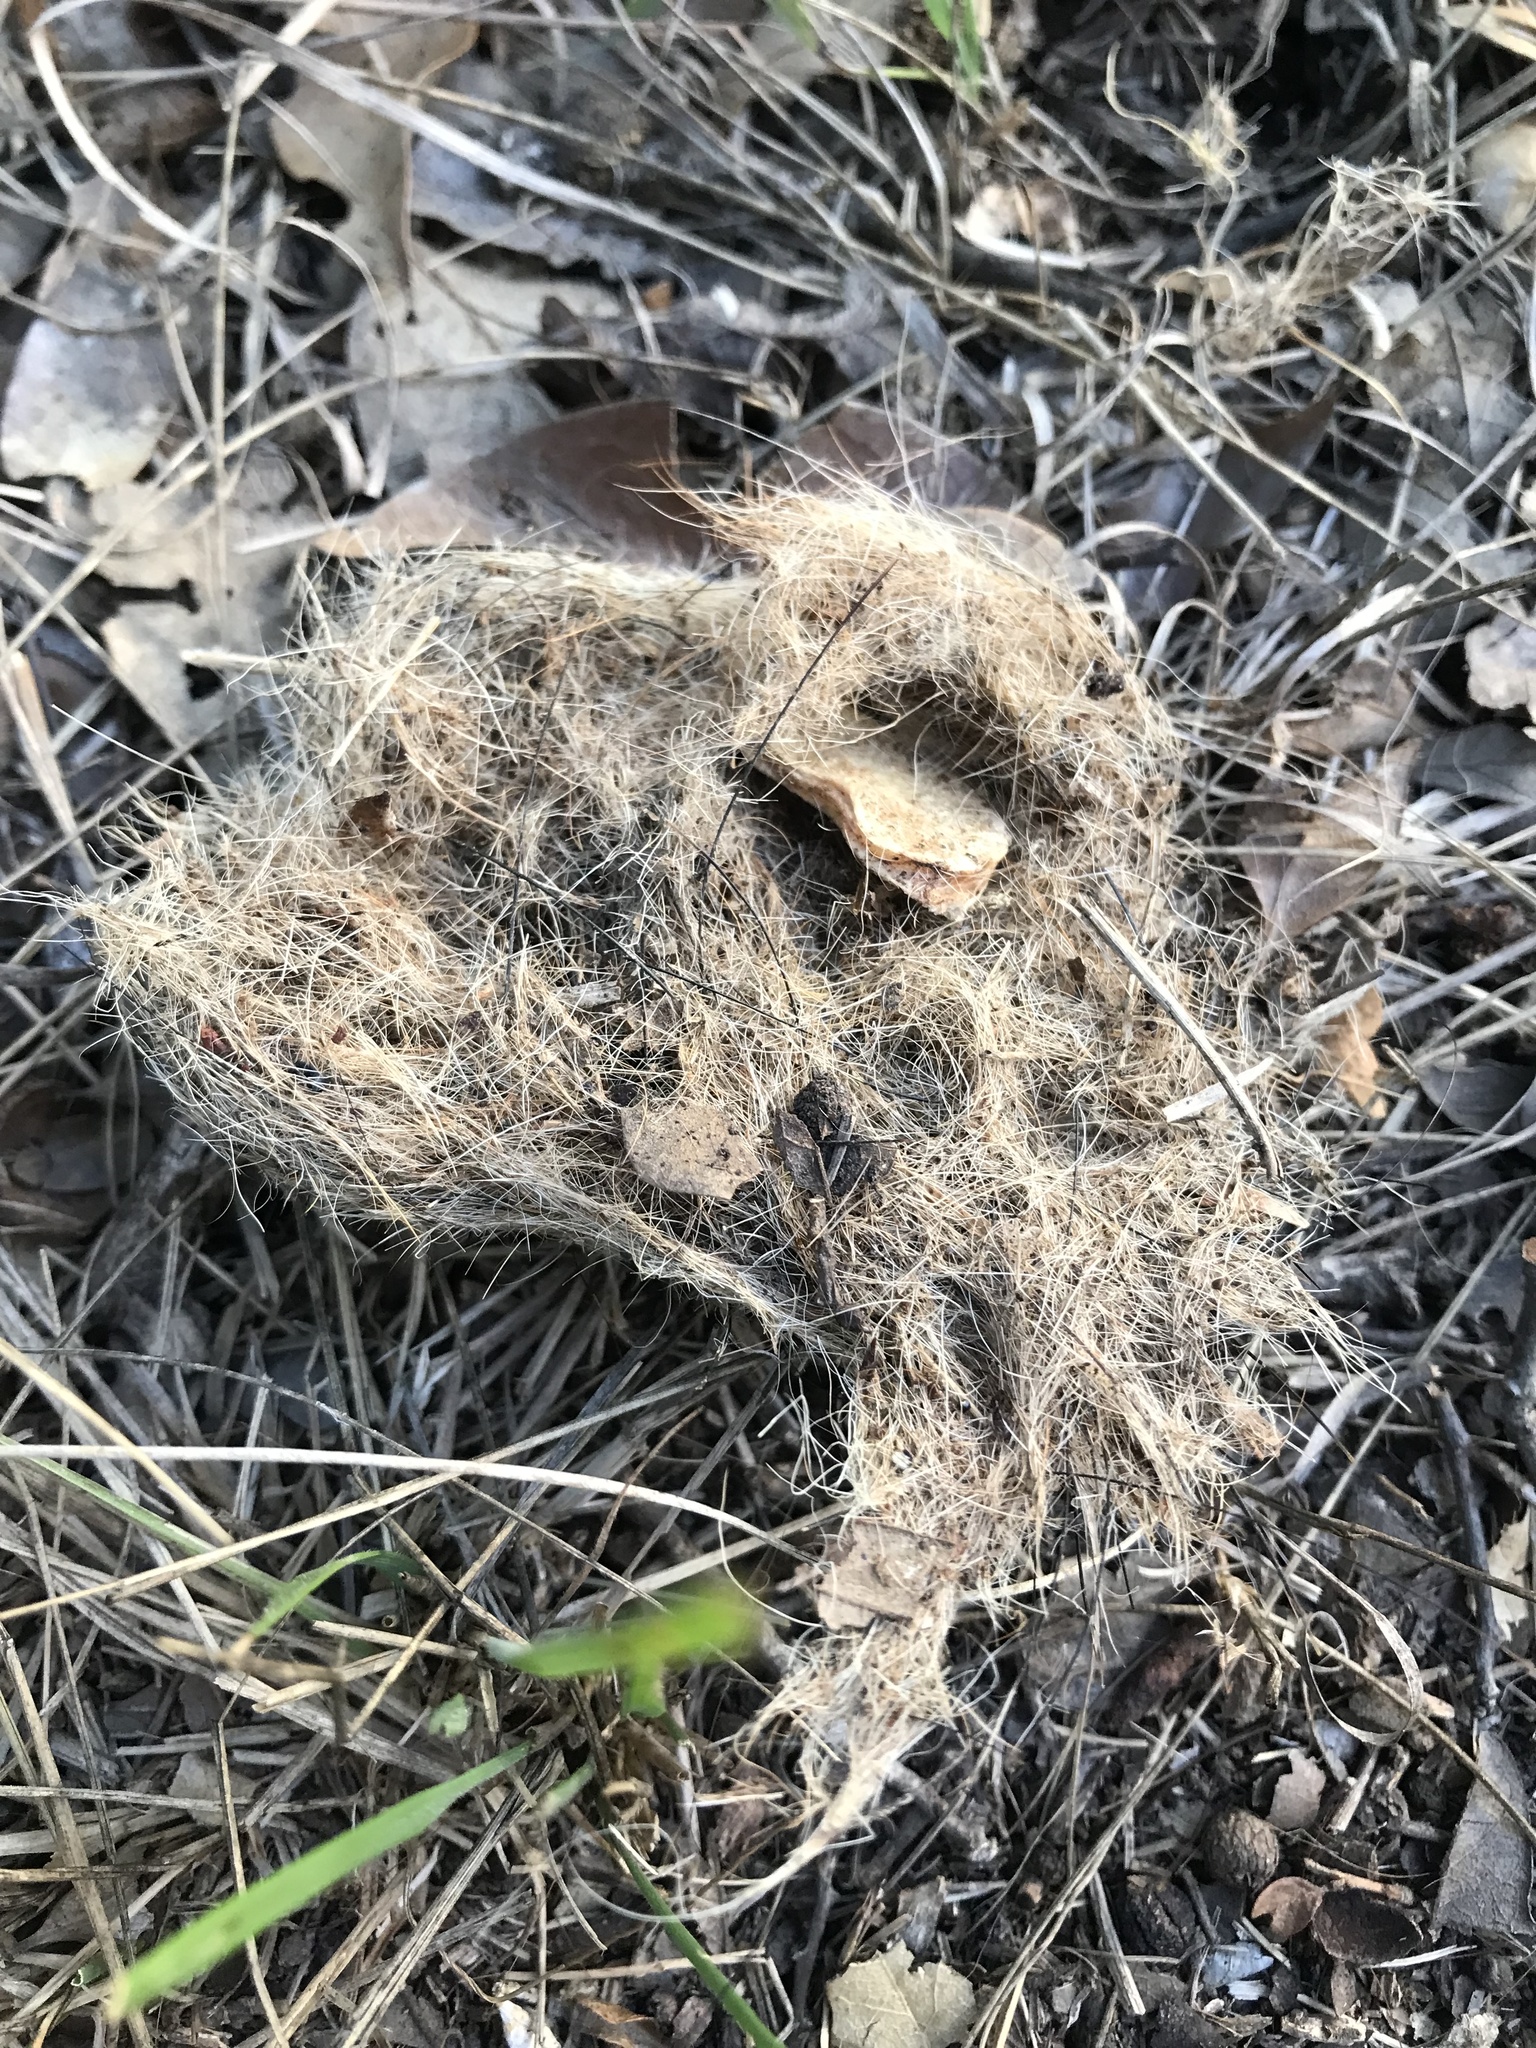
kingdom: Animalia
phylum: Chordata
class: Mammalia
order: Carnivora
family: Canidae
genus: Canis
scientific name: Canis latrans
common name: Coyote
